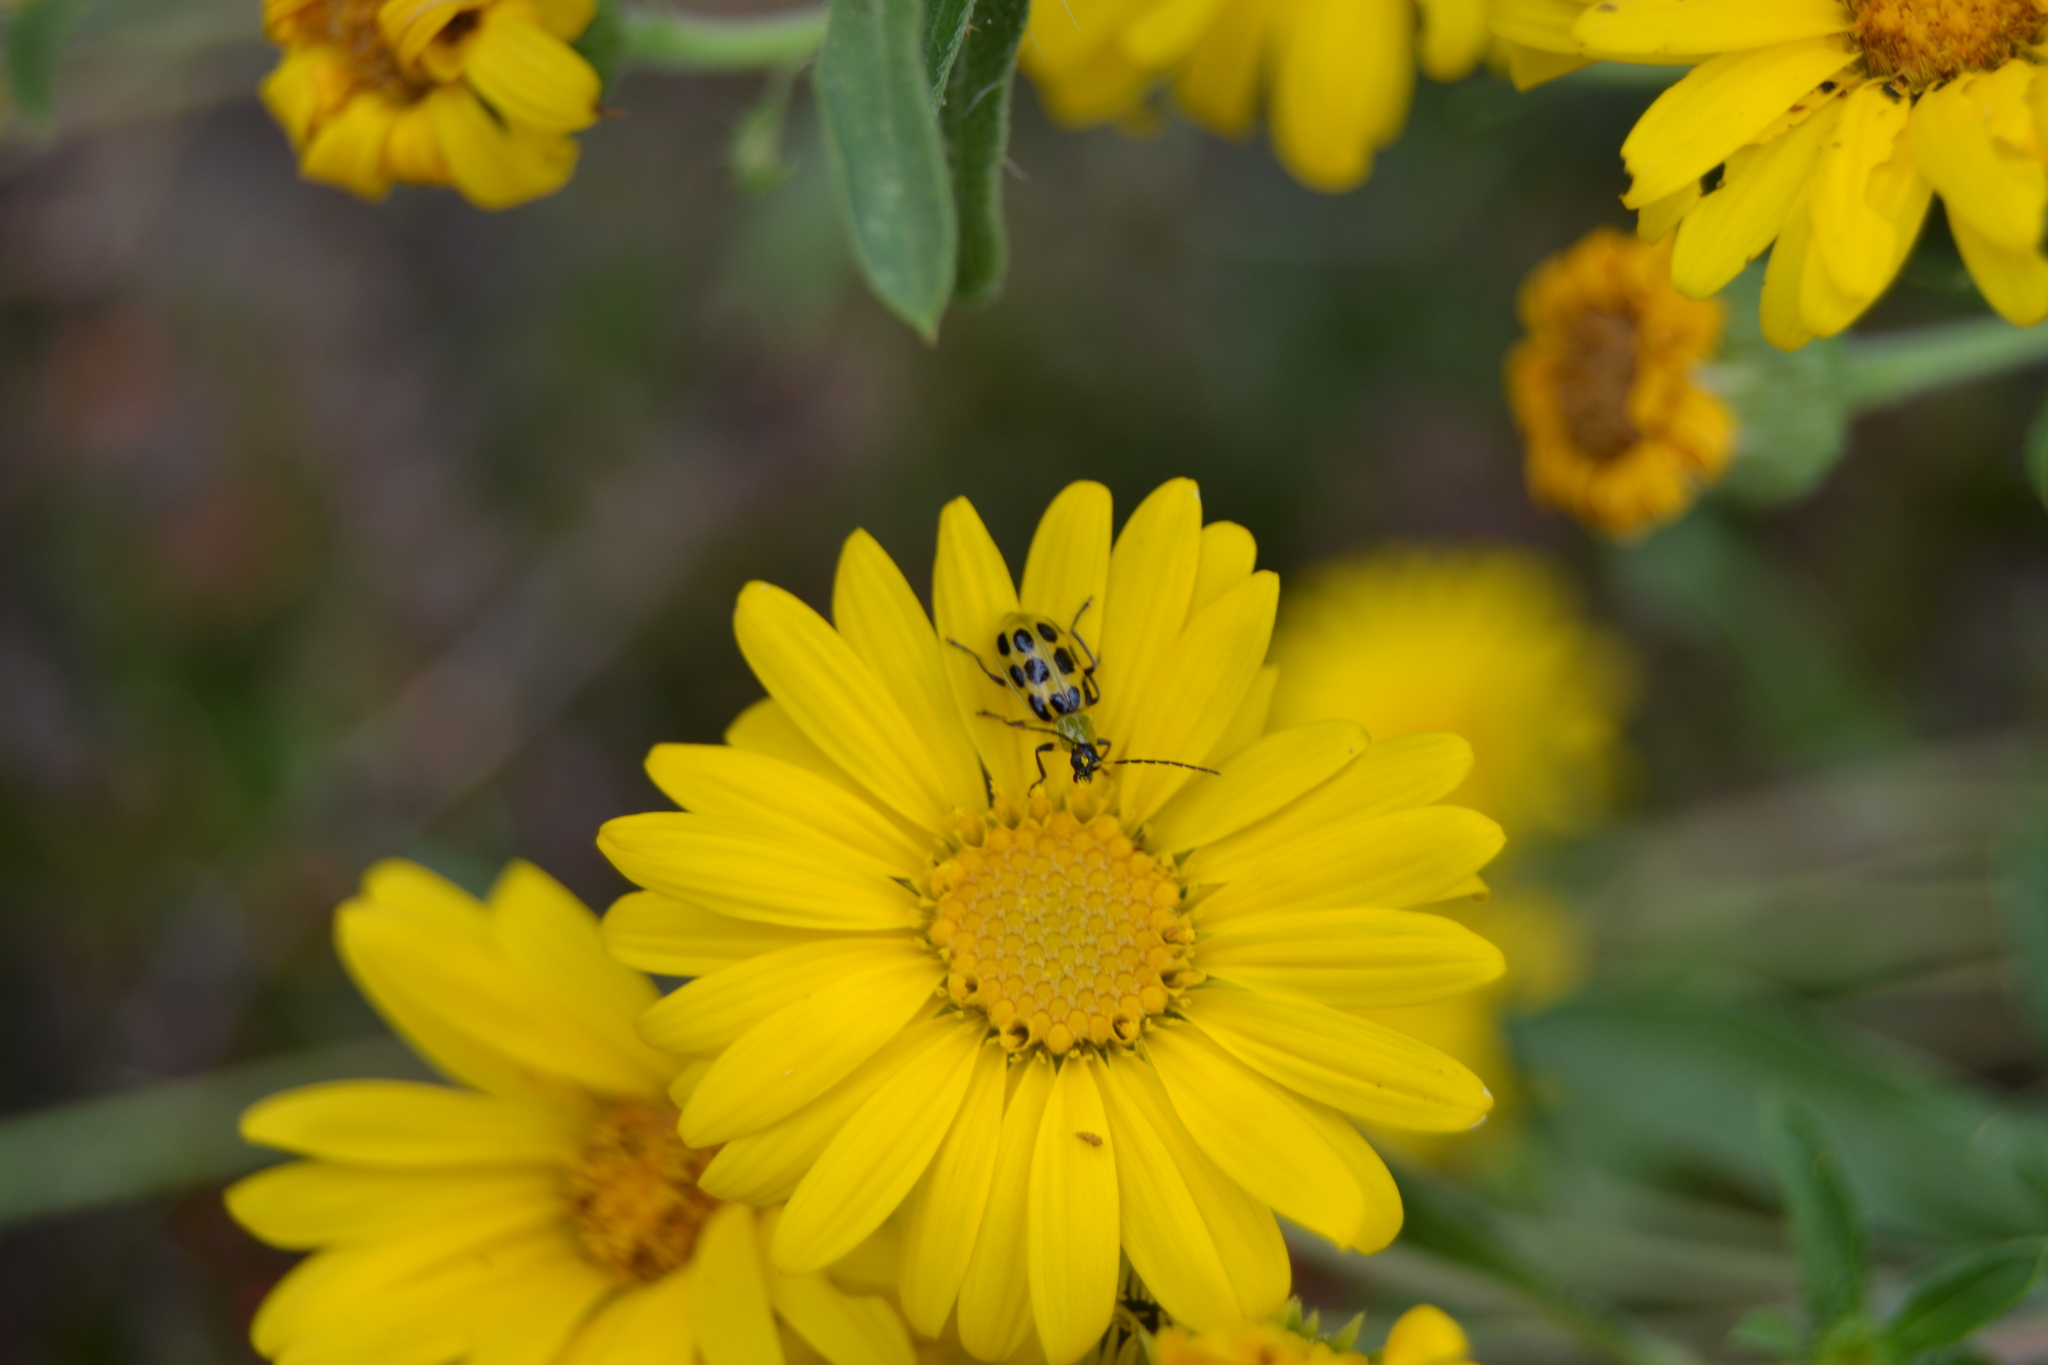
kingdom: Animalia
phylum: Arthropoda
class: Insecta
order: Coleoptera
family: Chrysomelidae
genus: Diabrotica
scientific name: Diabrotica undecimpunctata
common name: Spotted cucumber beetle
